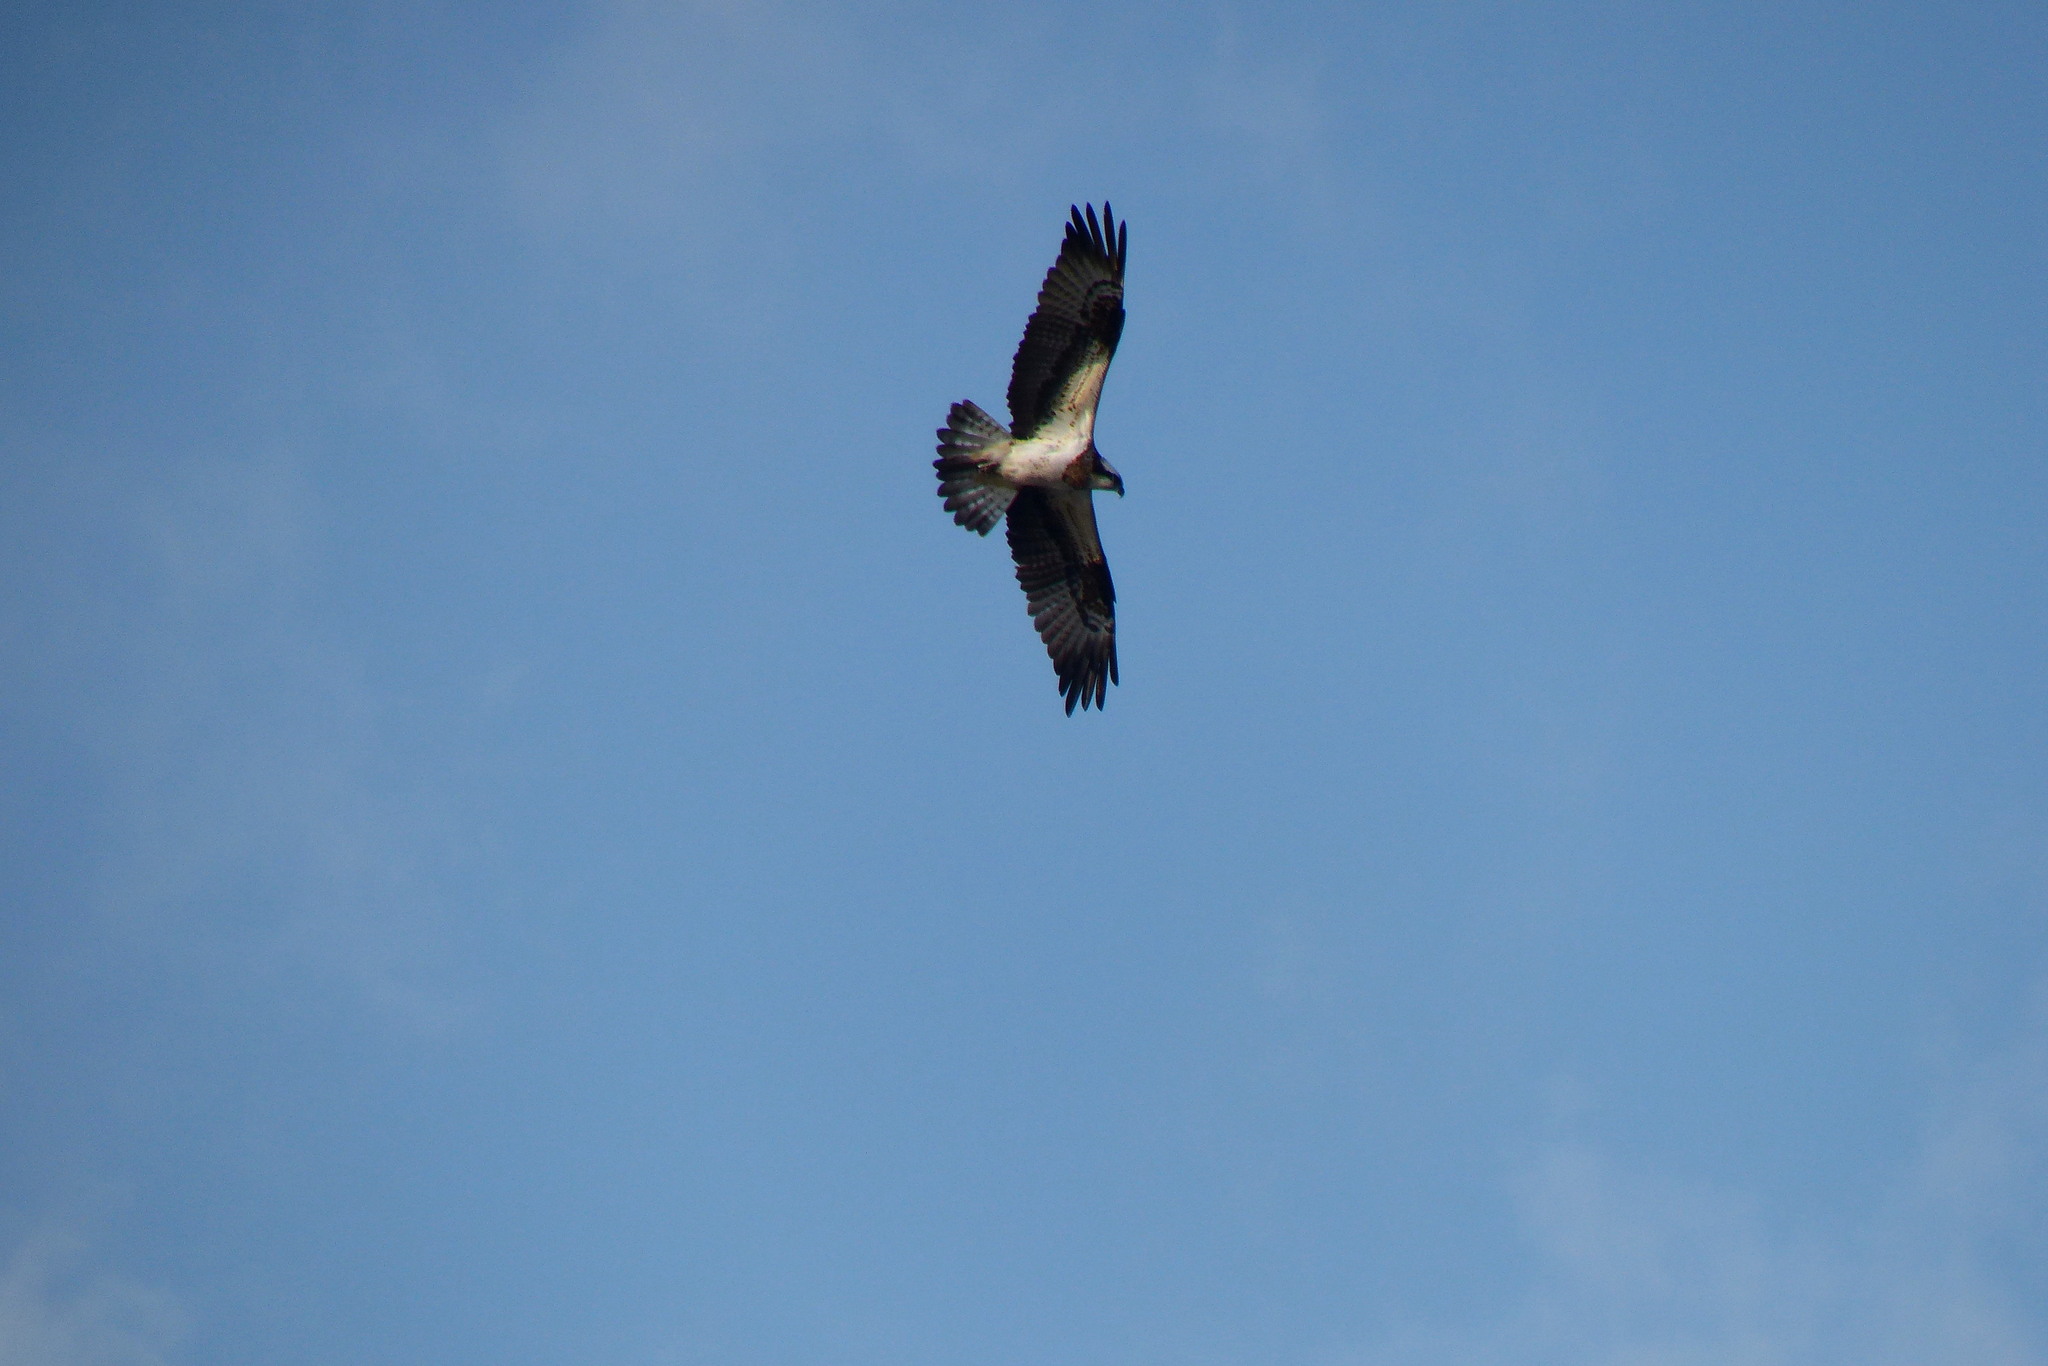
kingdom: Animalia
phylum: Chordata
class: Aves
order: Accipitriformes
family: Pandionidae
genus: Pandion
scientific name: Pandion haliaetus
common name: Osprey
